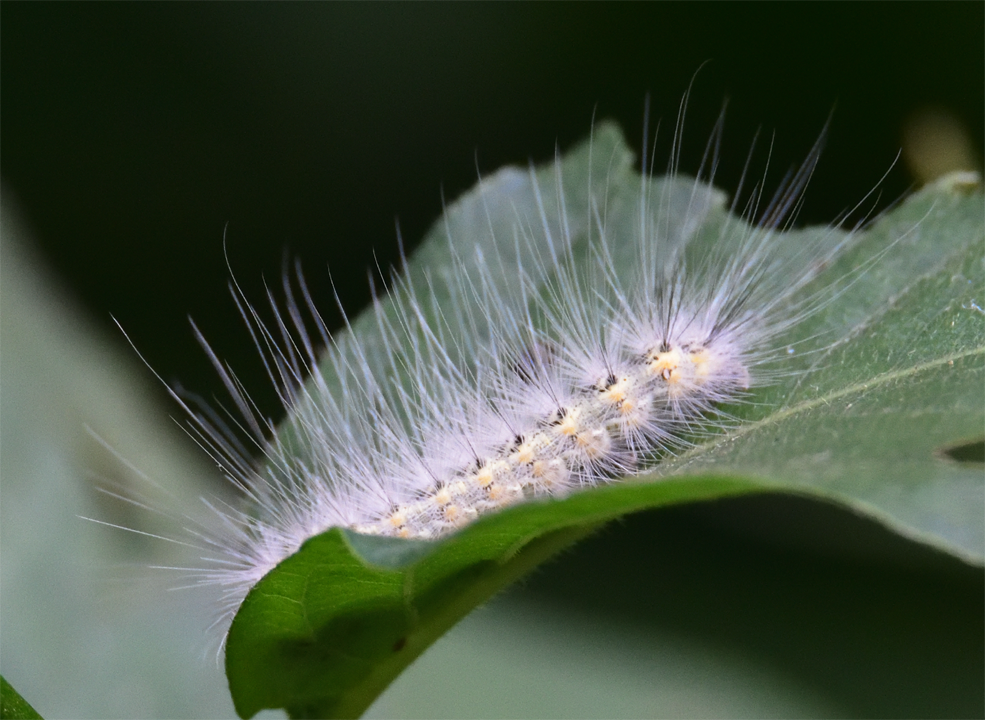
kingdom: Animalia
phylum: Arthropoda
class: Insecta
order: Lepidoptera
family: Erebidae
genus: Hyphantria
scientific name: Hyphantria cunea
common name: American white moth
